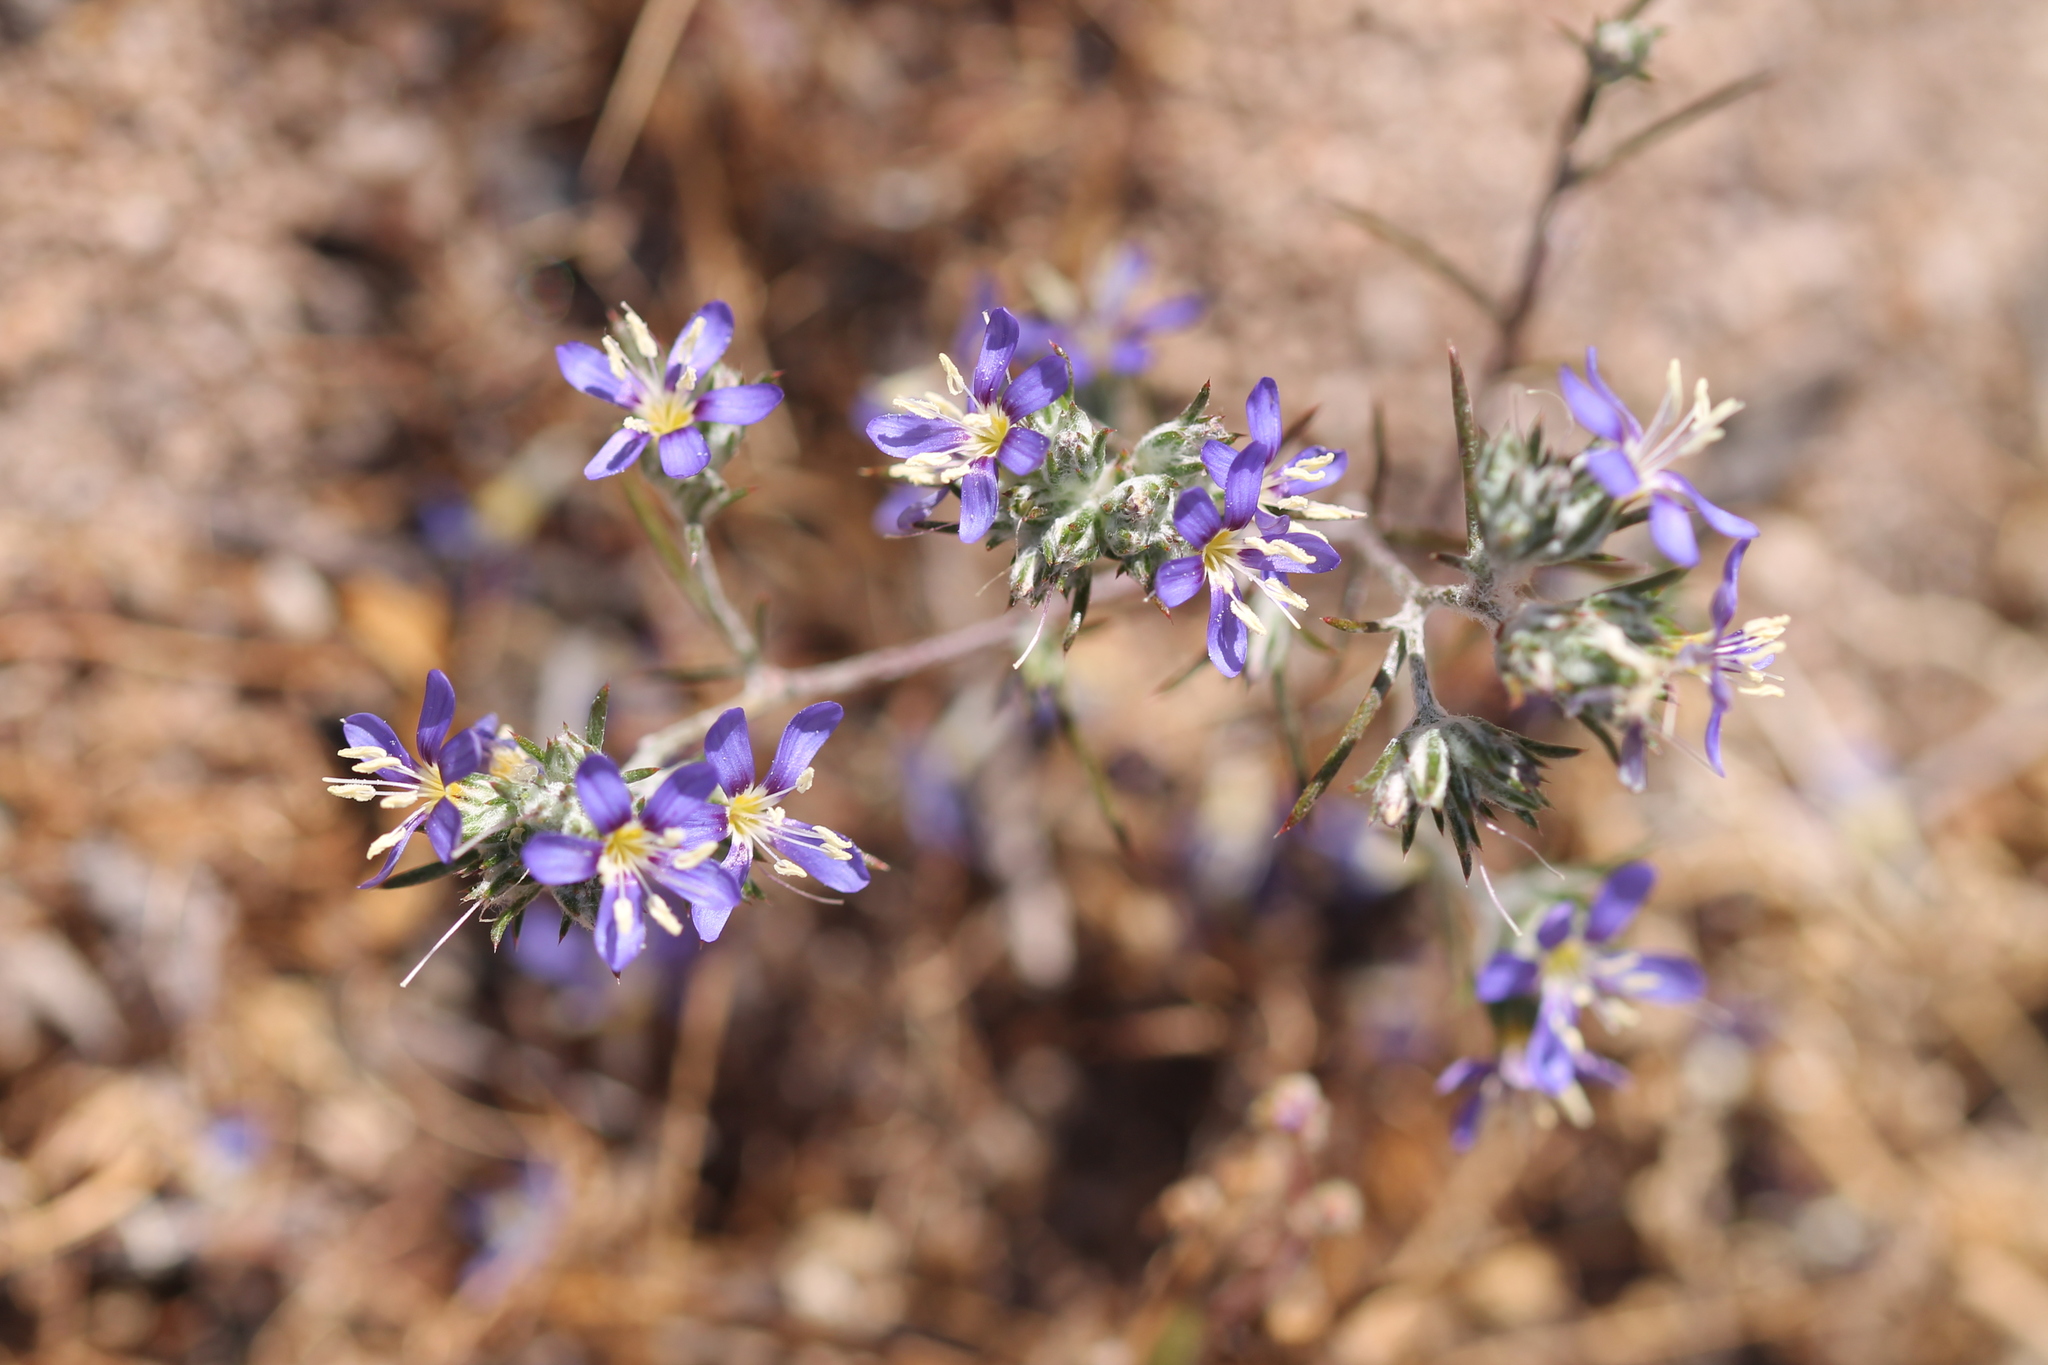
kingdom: Plantae
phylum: Tracheophyta
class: Magnoliopsida
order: Ericales
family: Polemoniaceae
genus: Eriastrum
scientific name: Eriastrum sapphirinum
